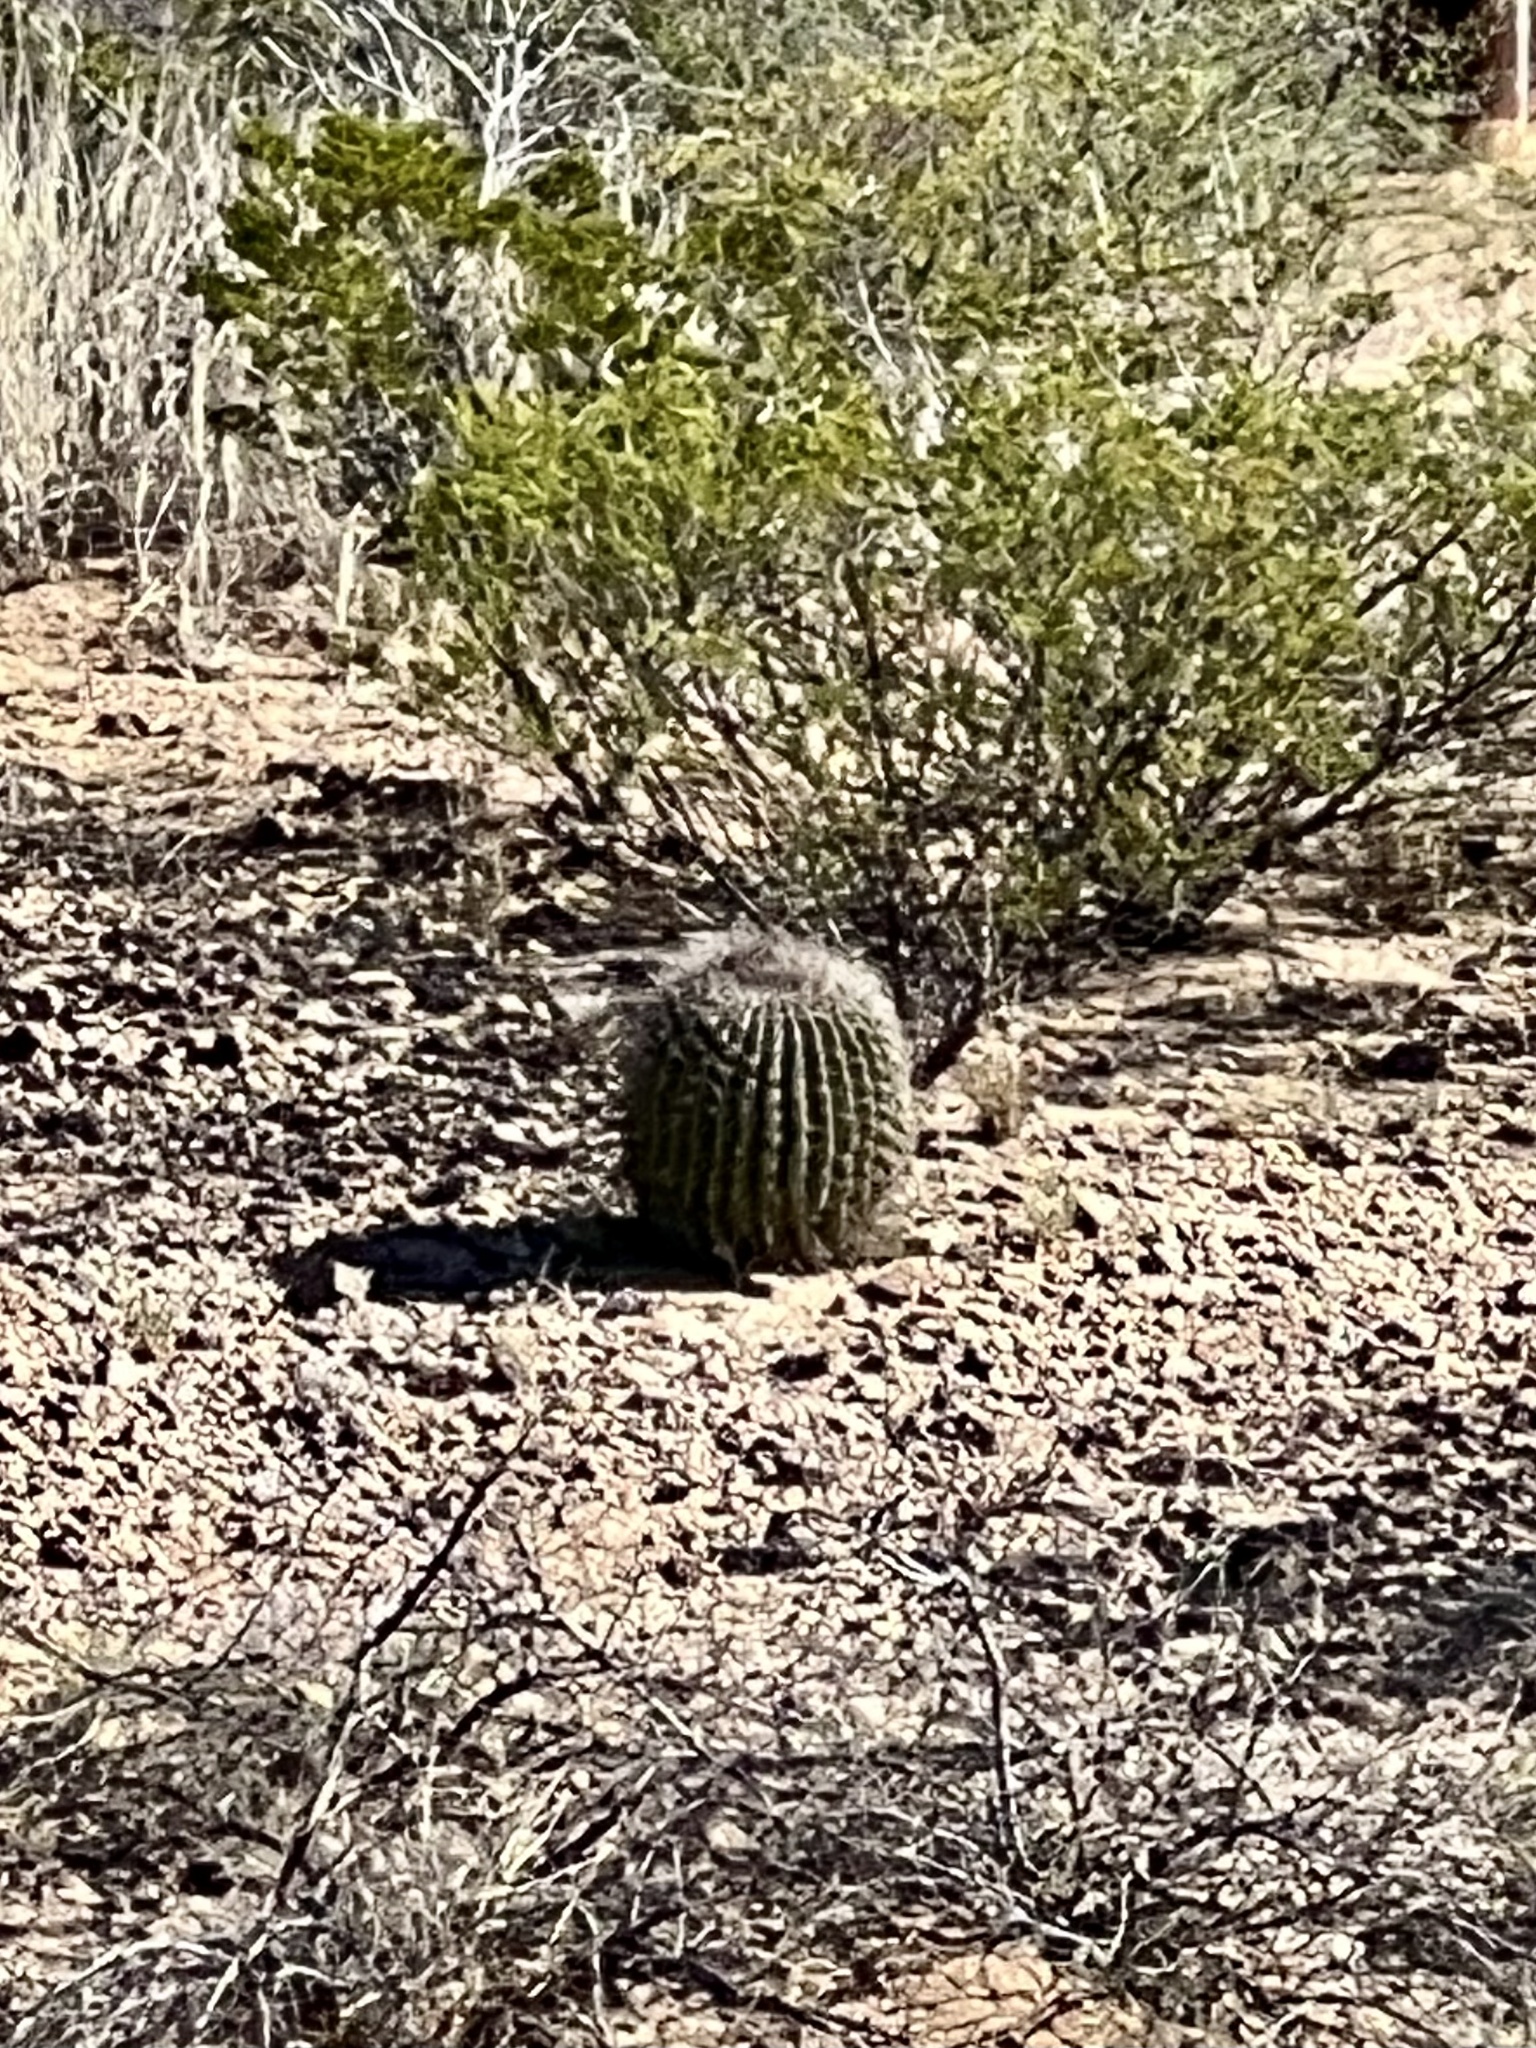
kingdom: Plantae
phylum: Tracheophyta
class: Magnoliopsida
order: Caryophyllales
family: Cactaceae
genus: Ferocactus
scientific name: Ferocactus wislizeni
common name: Candy barrel cactus
